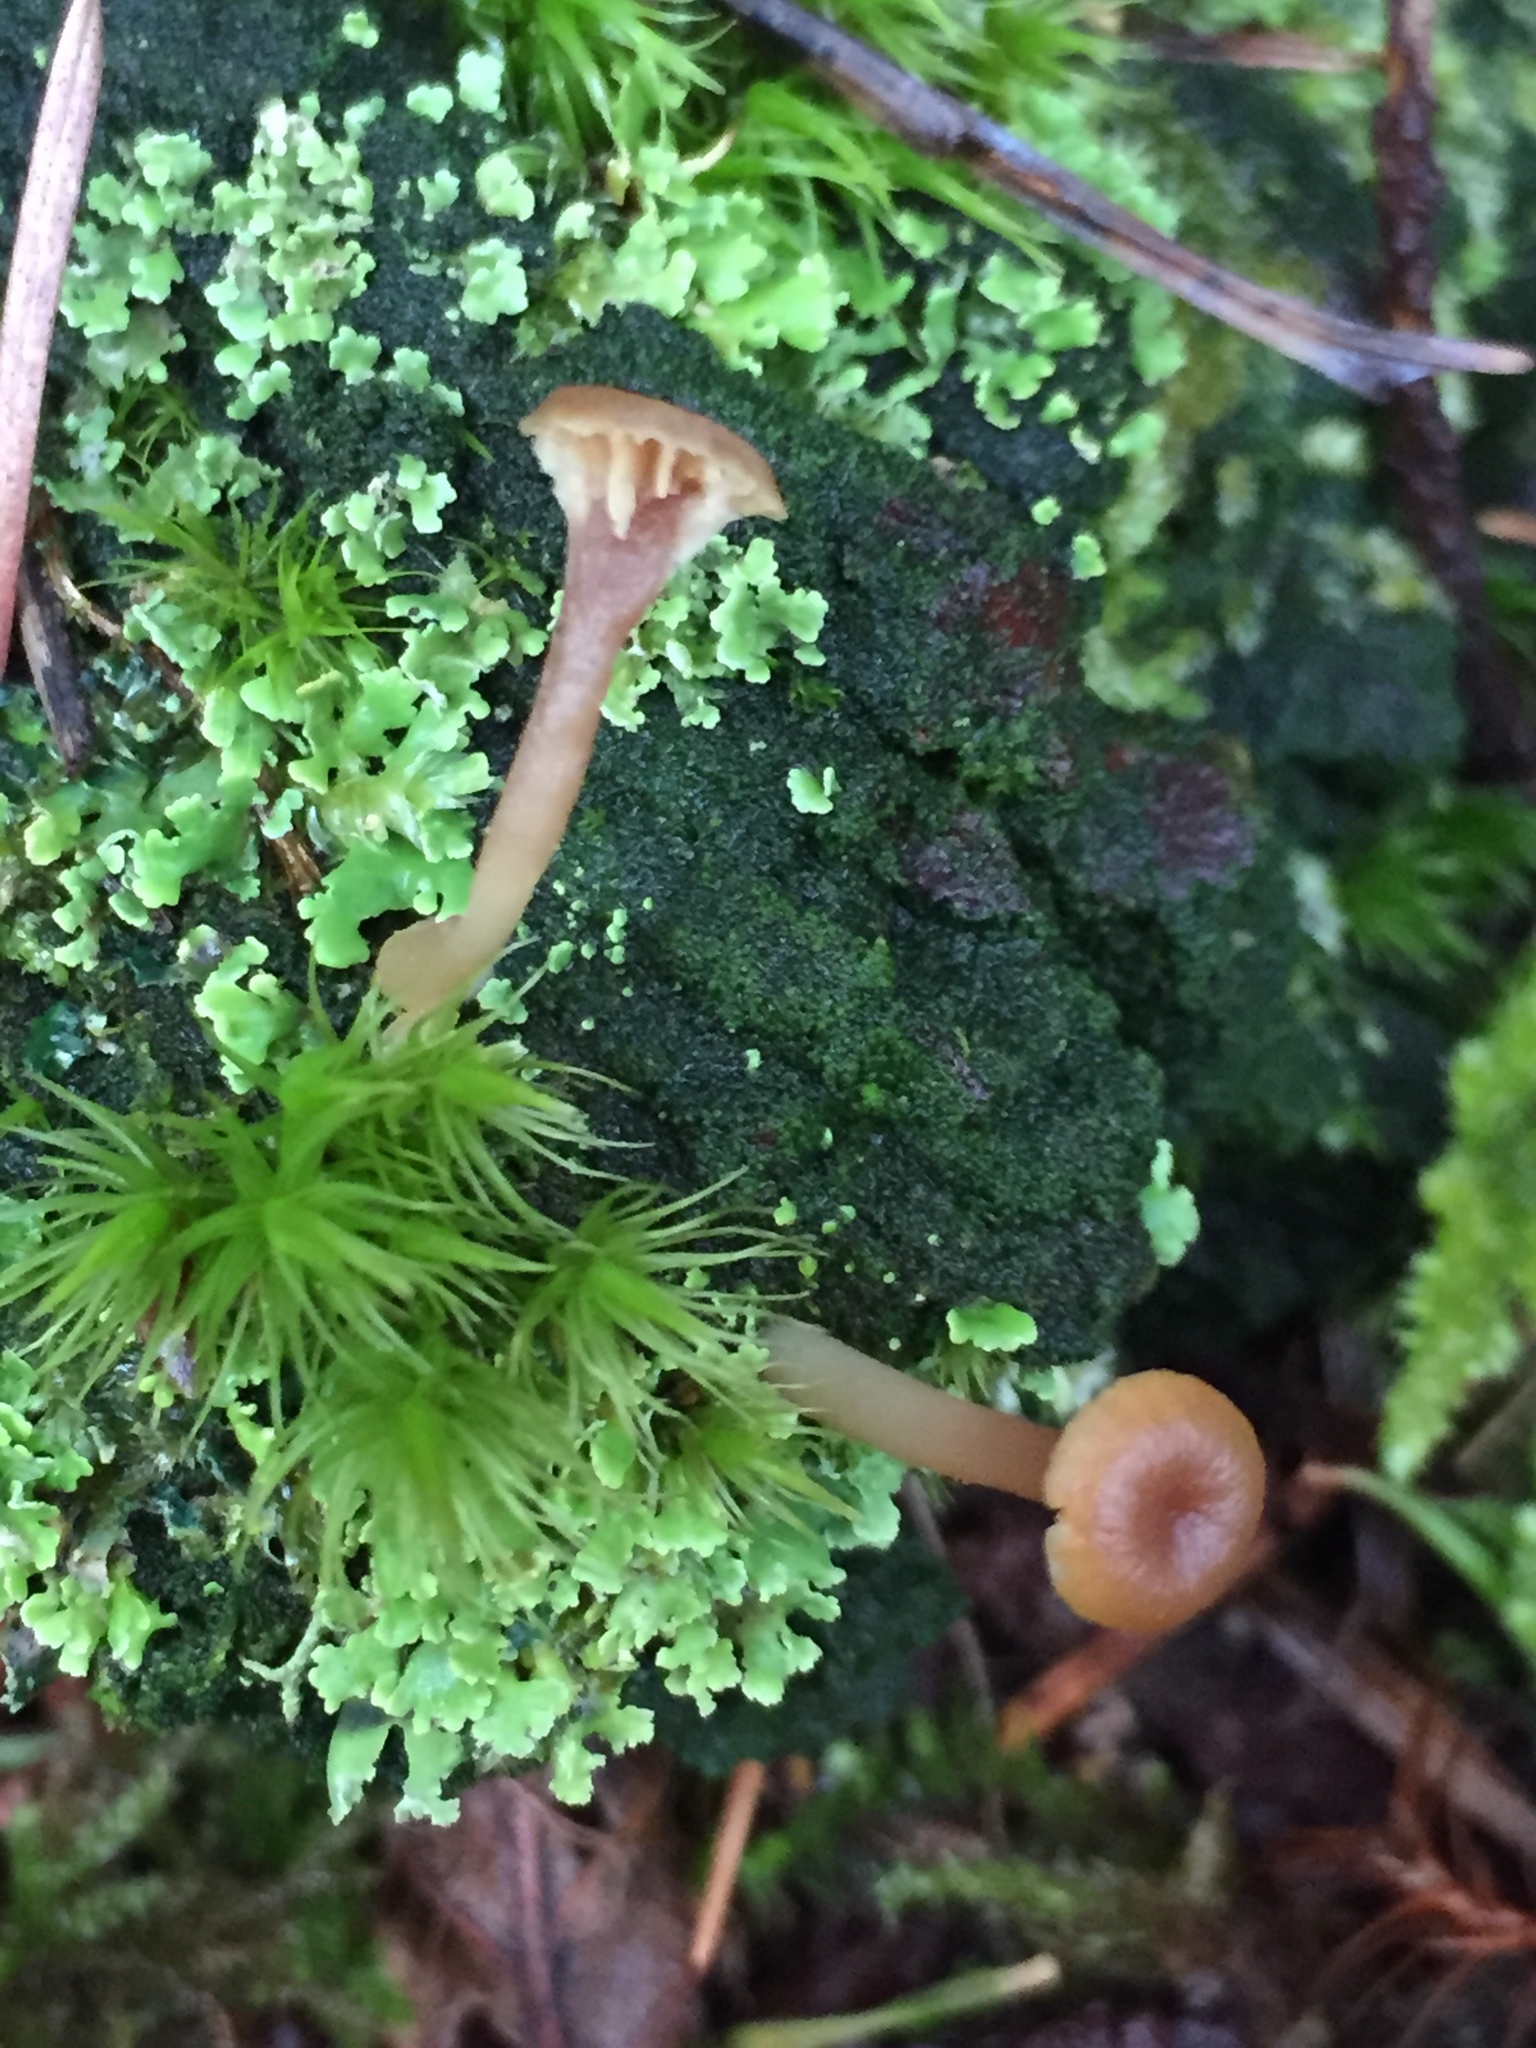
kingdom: Fungi
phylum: Basidiomycota
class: Agaricomycetes
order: Agaricales
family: Hygrophoraceae
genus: Lichenomphalia
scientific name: Lichenomphalia
